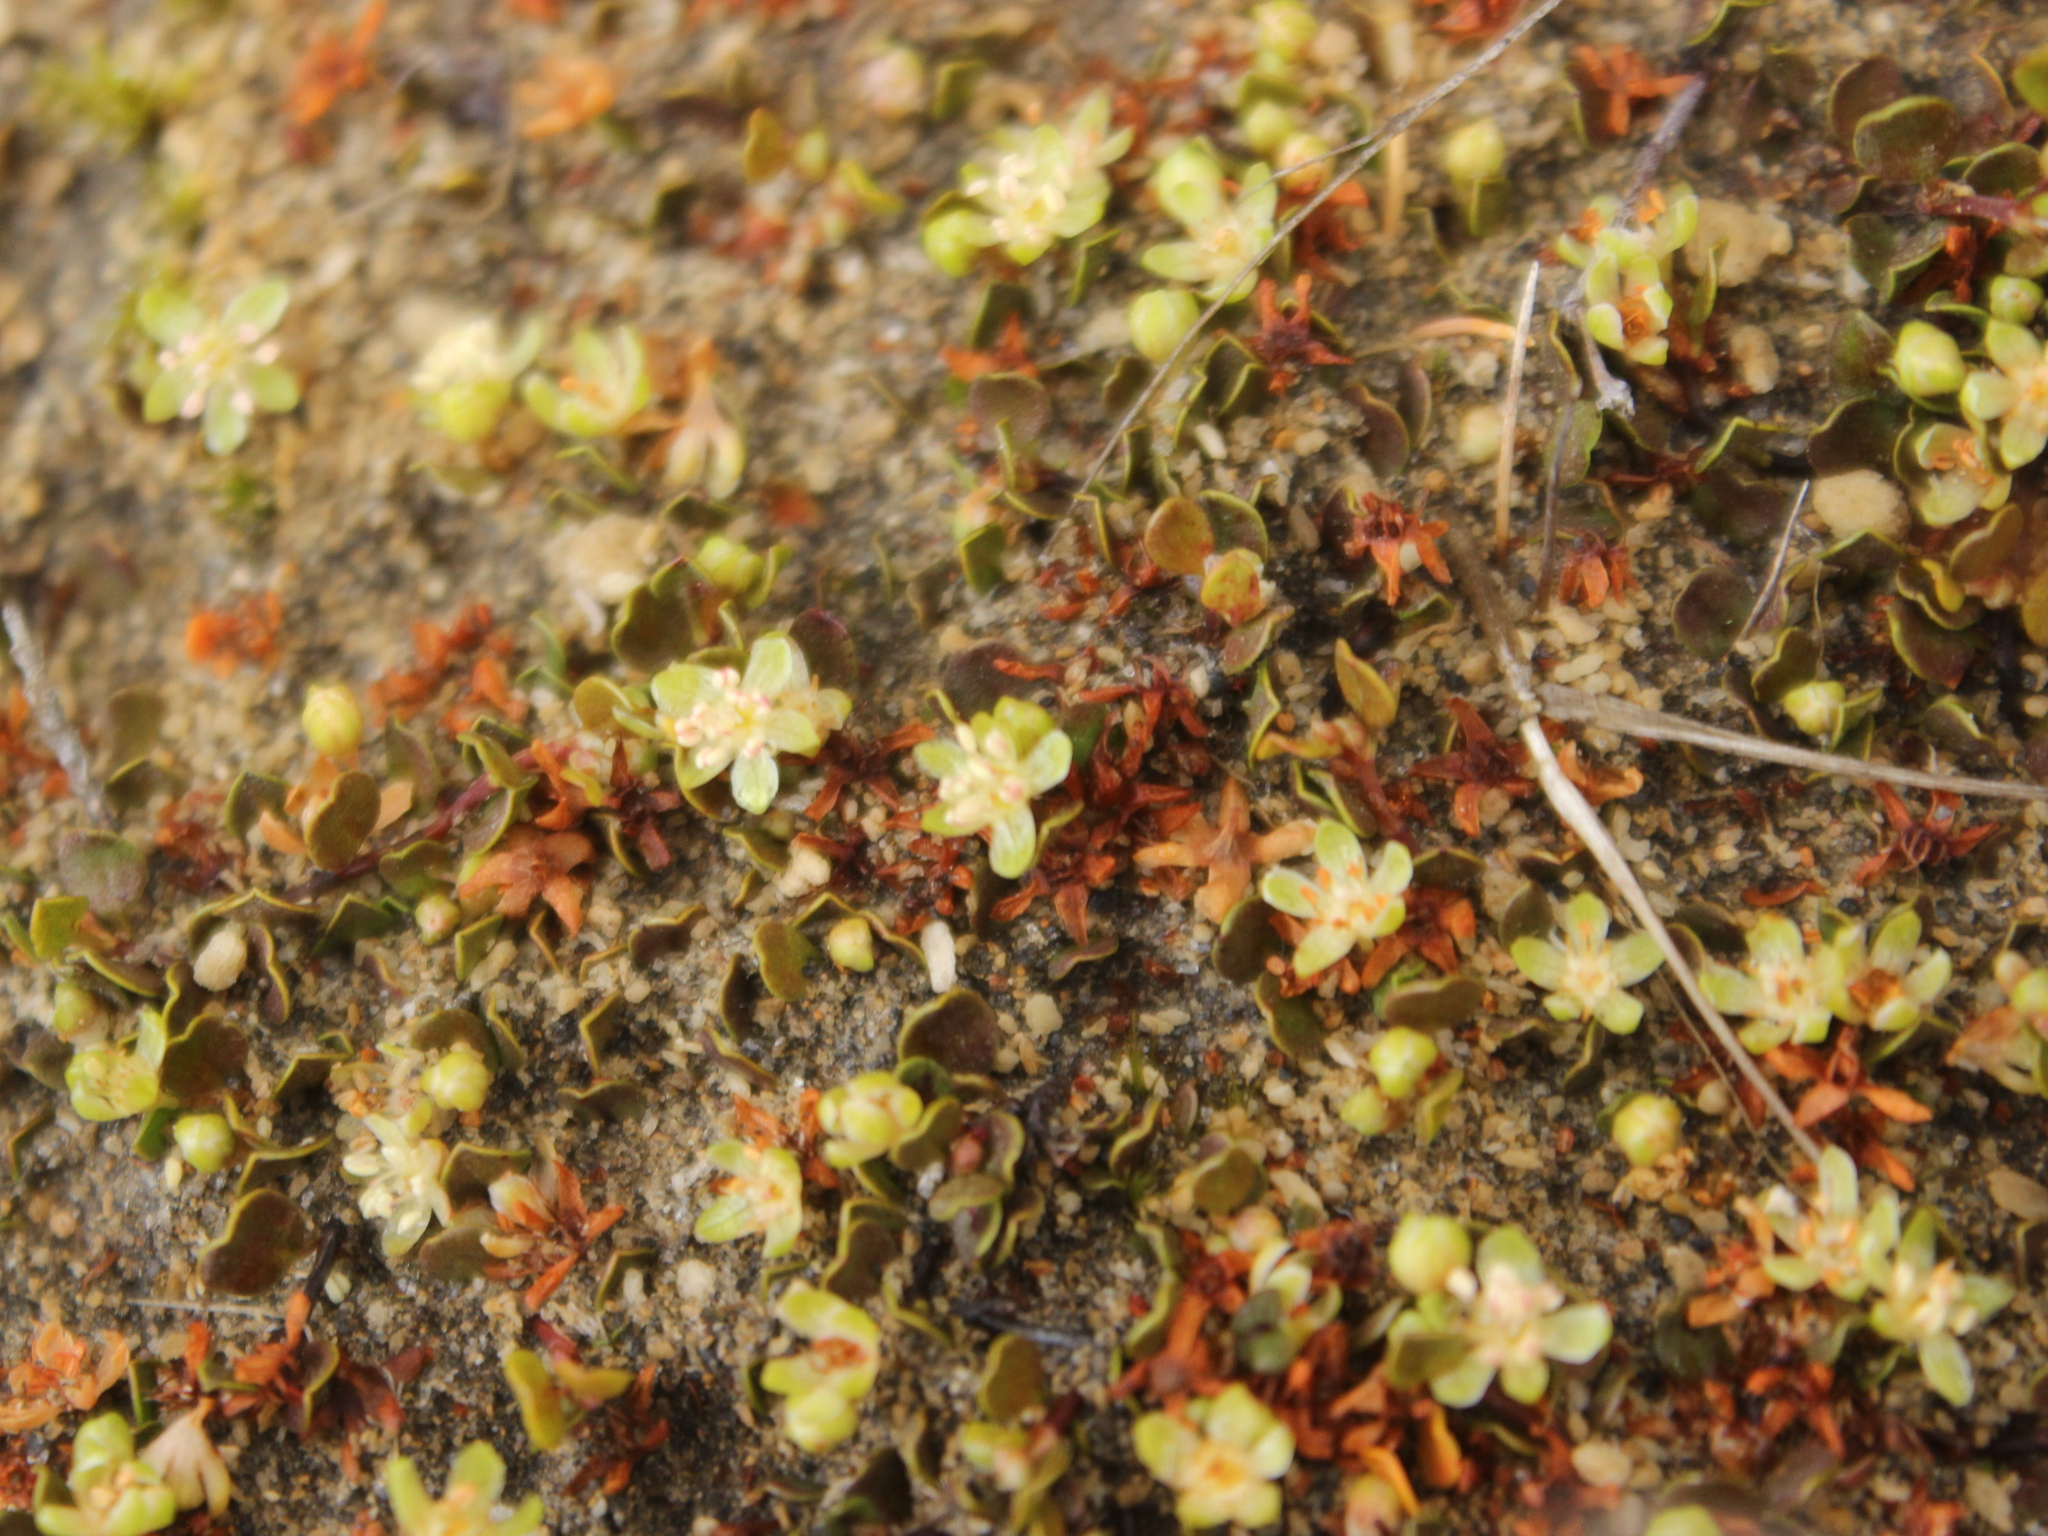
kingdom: Plantae
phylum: Tracheophyta
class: Magnoliopsida
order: Caryophyllales
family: Polygonaceae
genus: Muehlenbeckia
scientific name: Muehlenbeckia axillaris
